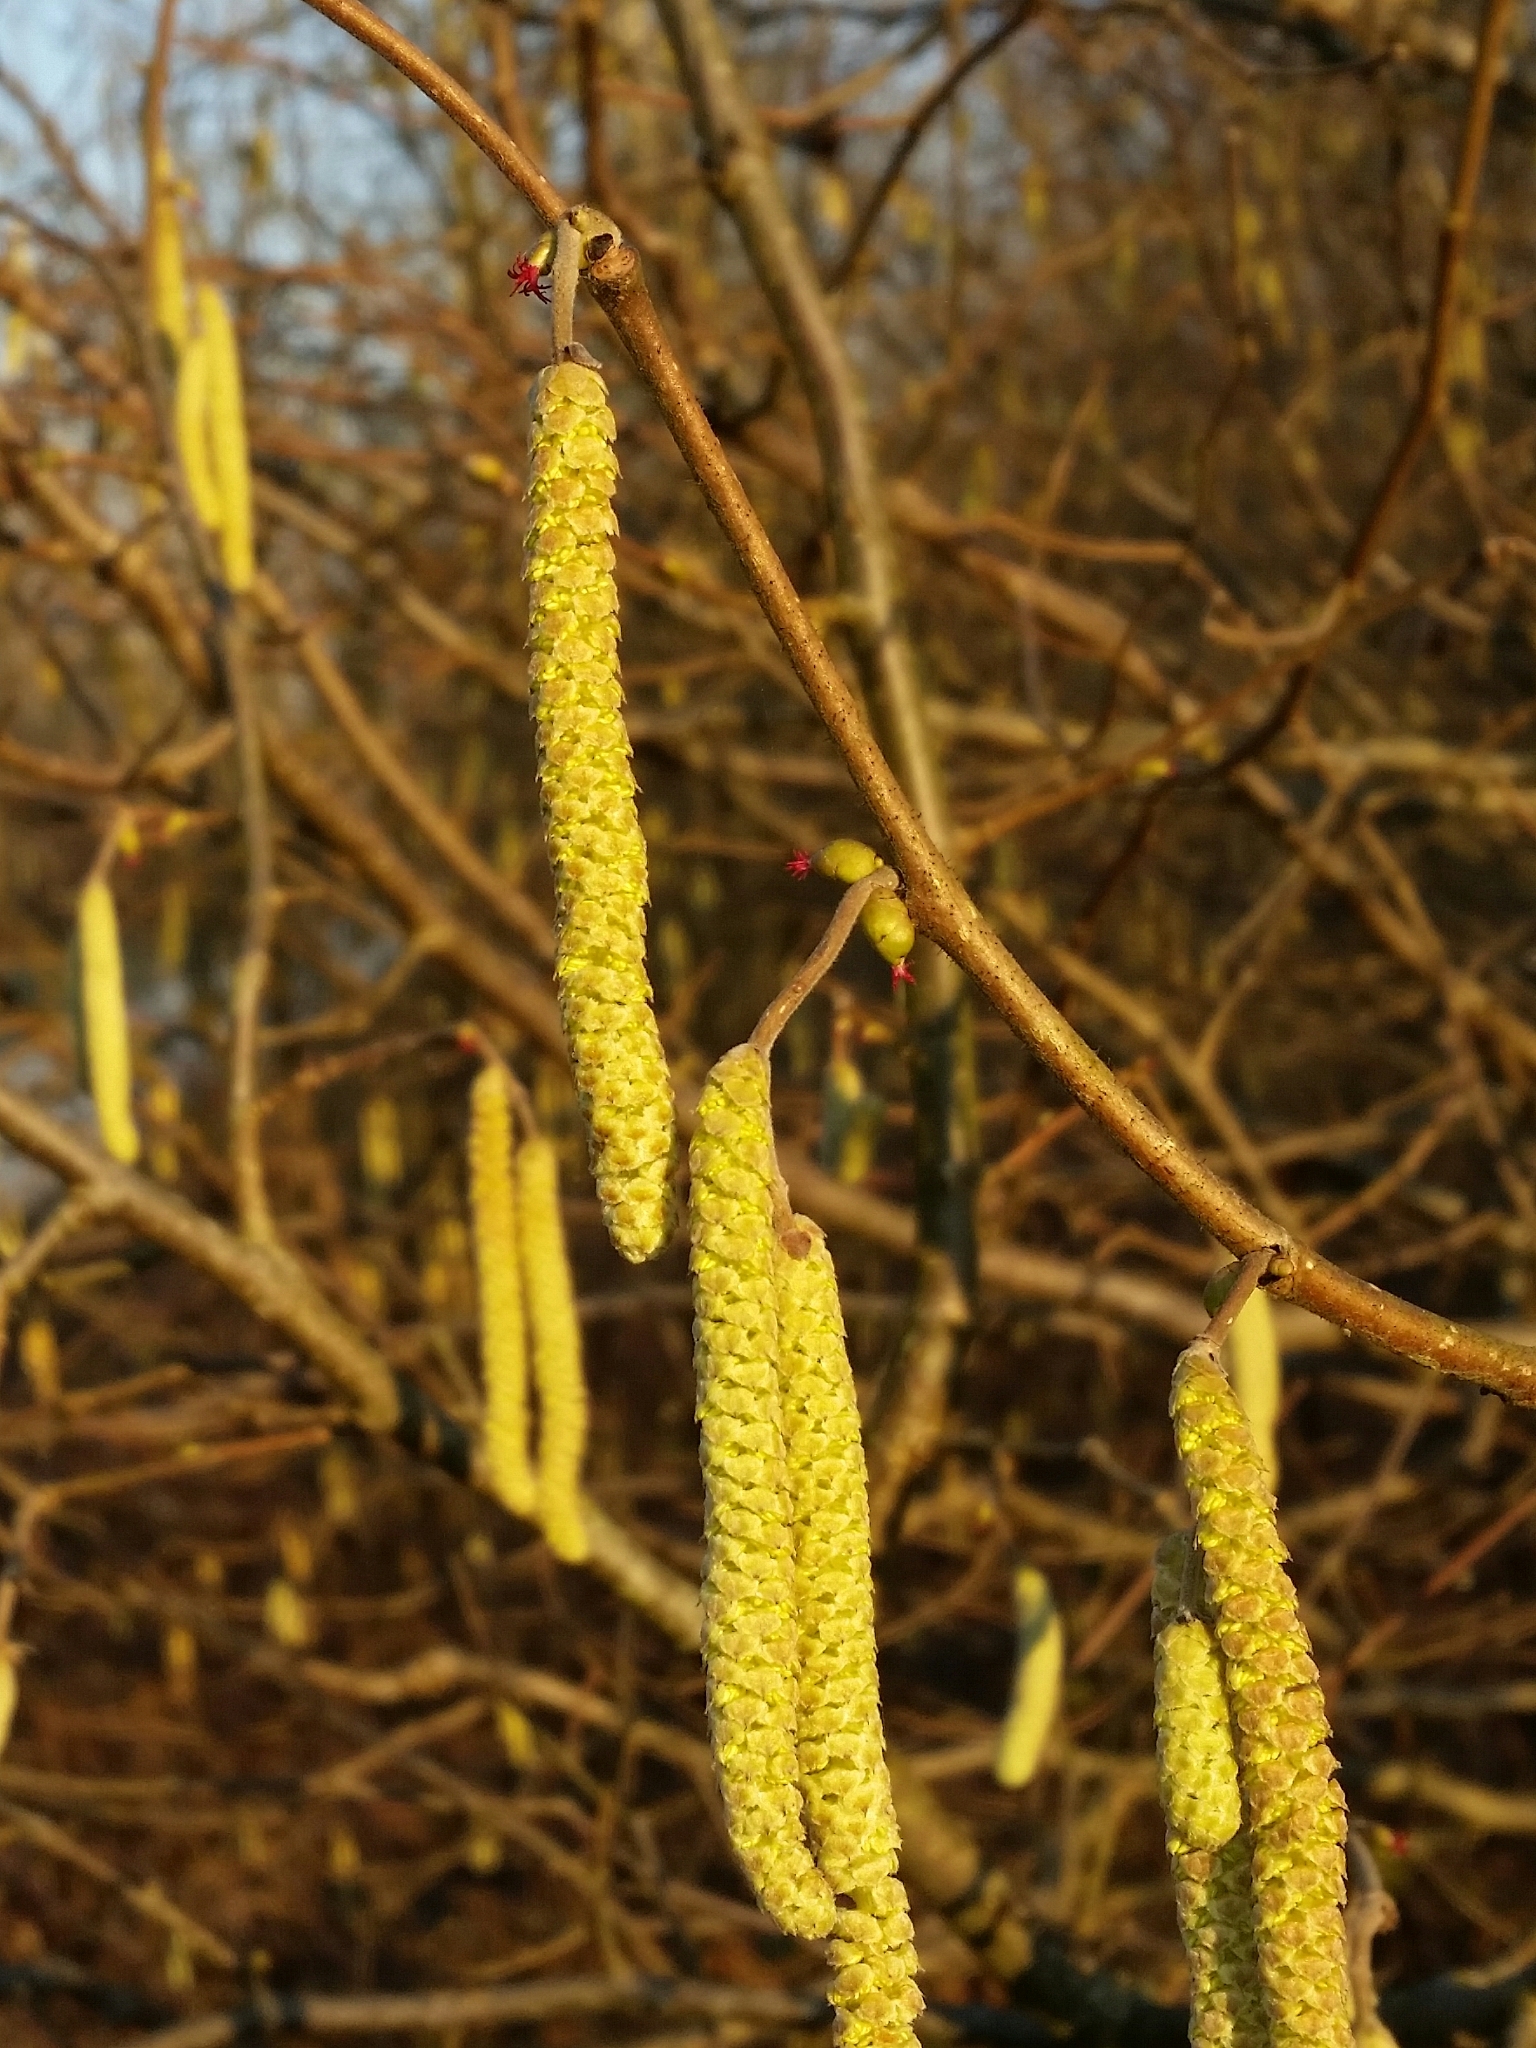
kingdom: Plantae
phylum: Tracheophyta
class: Magnoliopsida
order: Fagales
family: Betulaceae
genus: Corylus
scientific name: Corylus avellana
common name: European hazel
